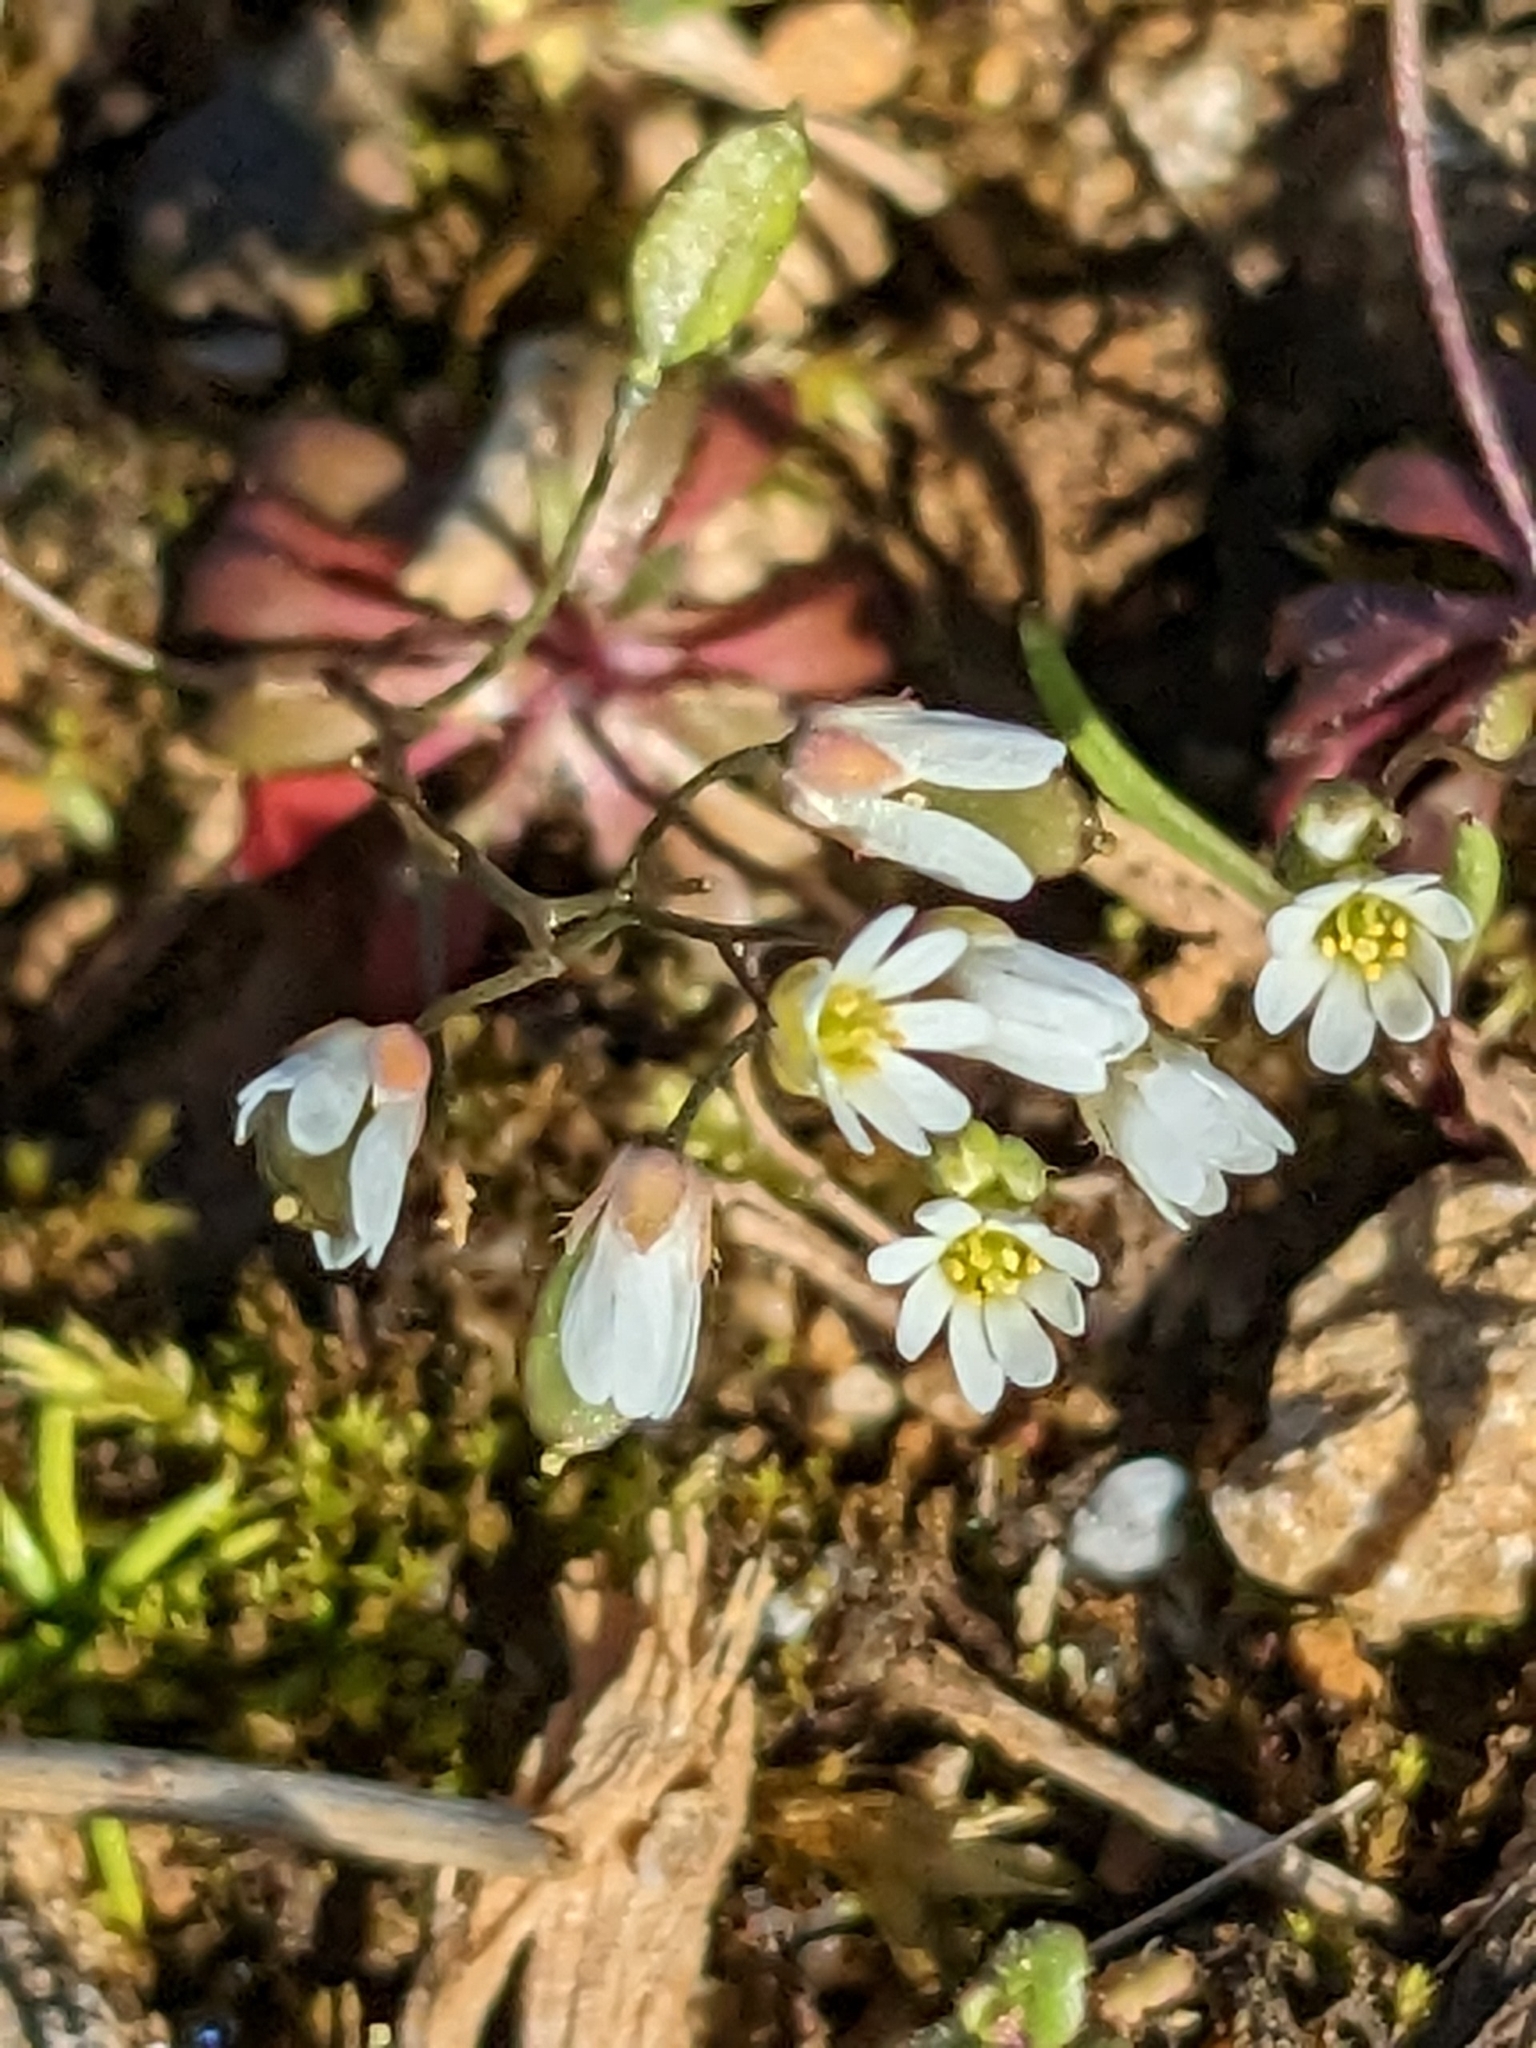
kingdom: Plantae
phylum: Tracheophyta
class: Magnoliopsida
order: Brassicales
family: Brassicaceae
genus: Draba
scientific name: Draba verna
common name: Spring draba
